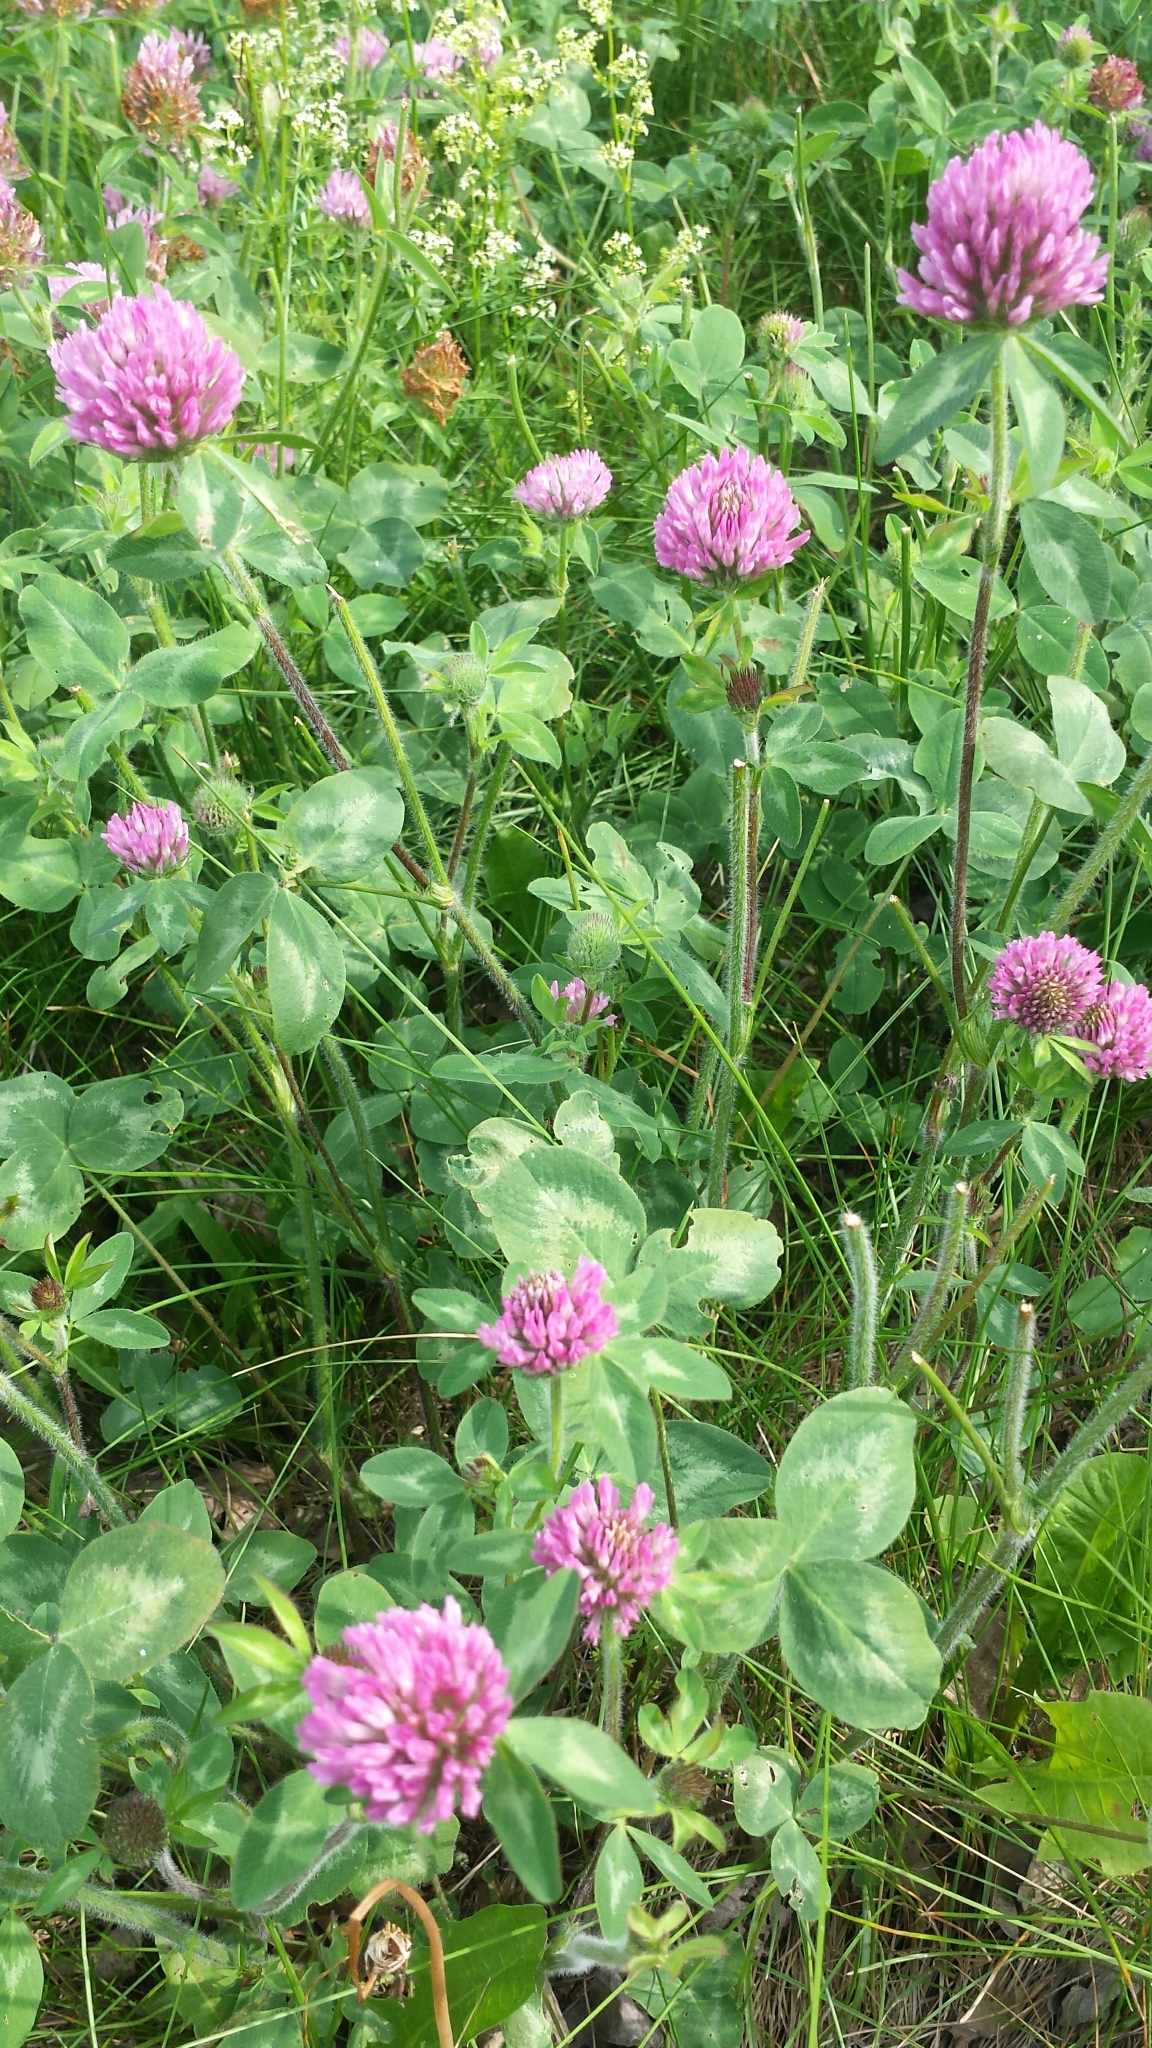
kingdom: Plantae
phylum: Tracheophyta
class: Magnoliopsida
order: Fabales
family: Fabaceae
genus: Trifolium
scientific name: Trifolium pratense
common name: Red clover
